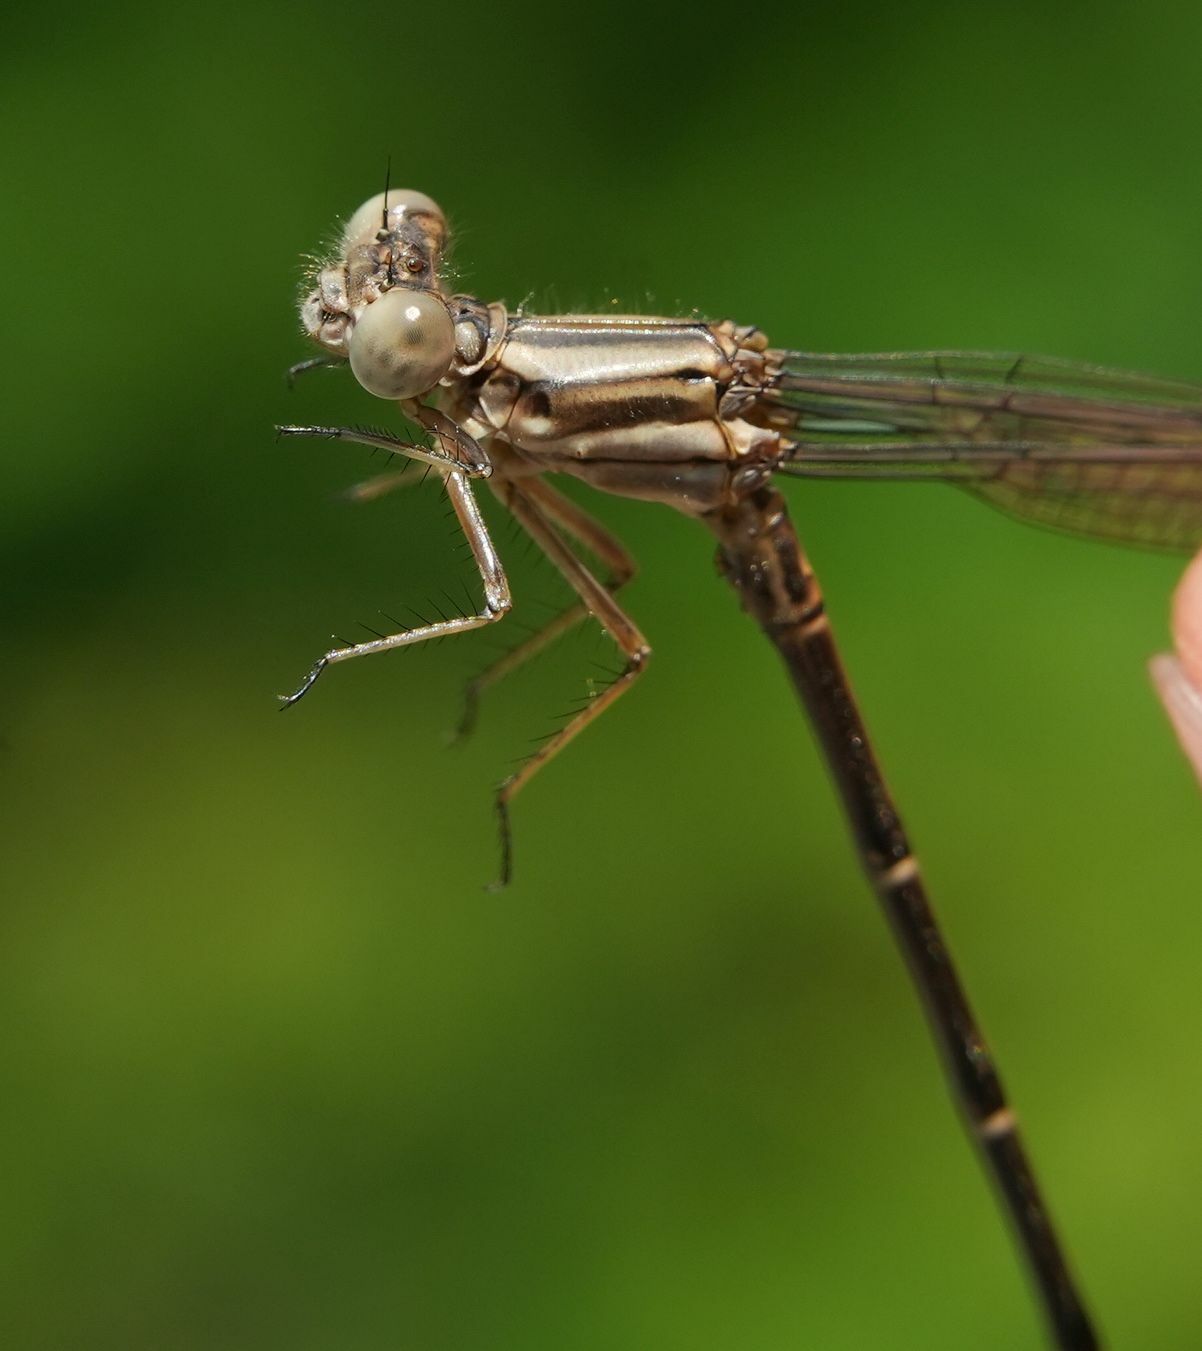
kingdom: Animalia
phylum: Arthropoda
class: Insecta
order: Odonata
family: Coenagrionidae
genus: Argia
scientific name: Argia moesta
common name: Powdered dancer
